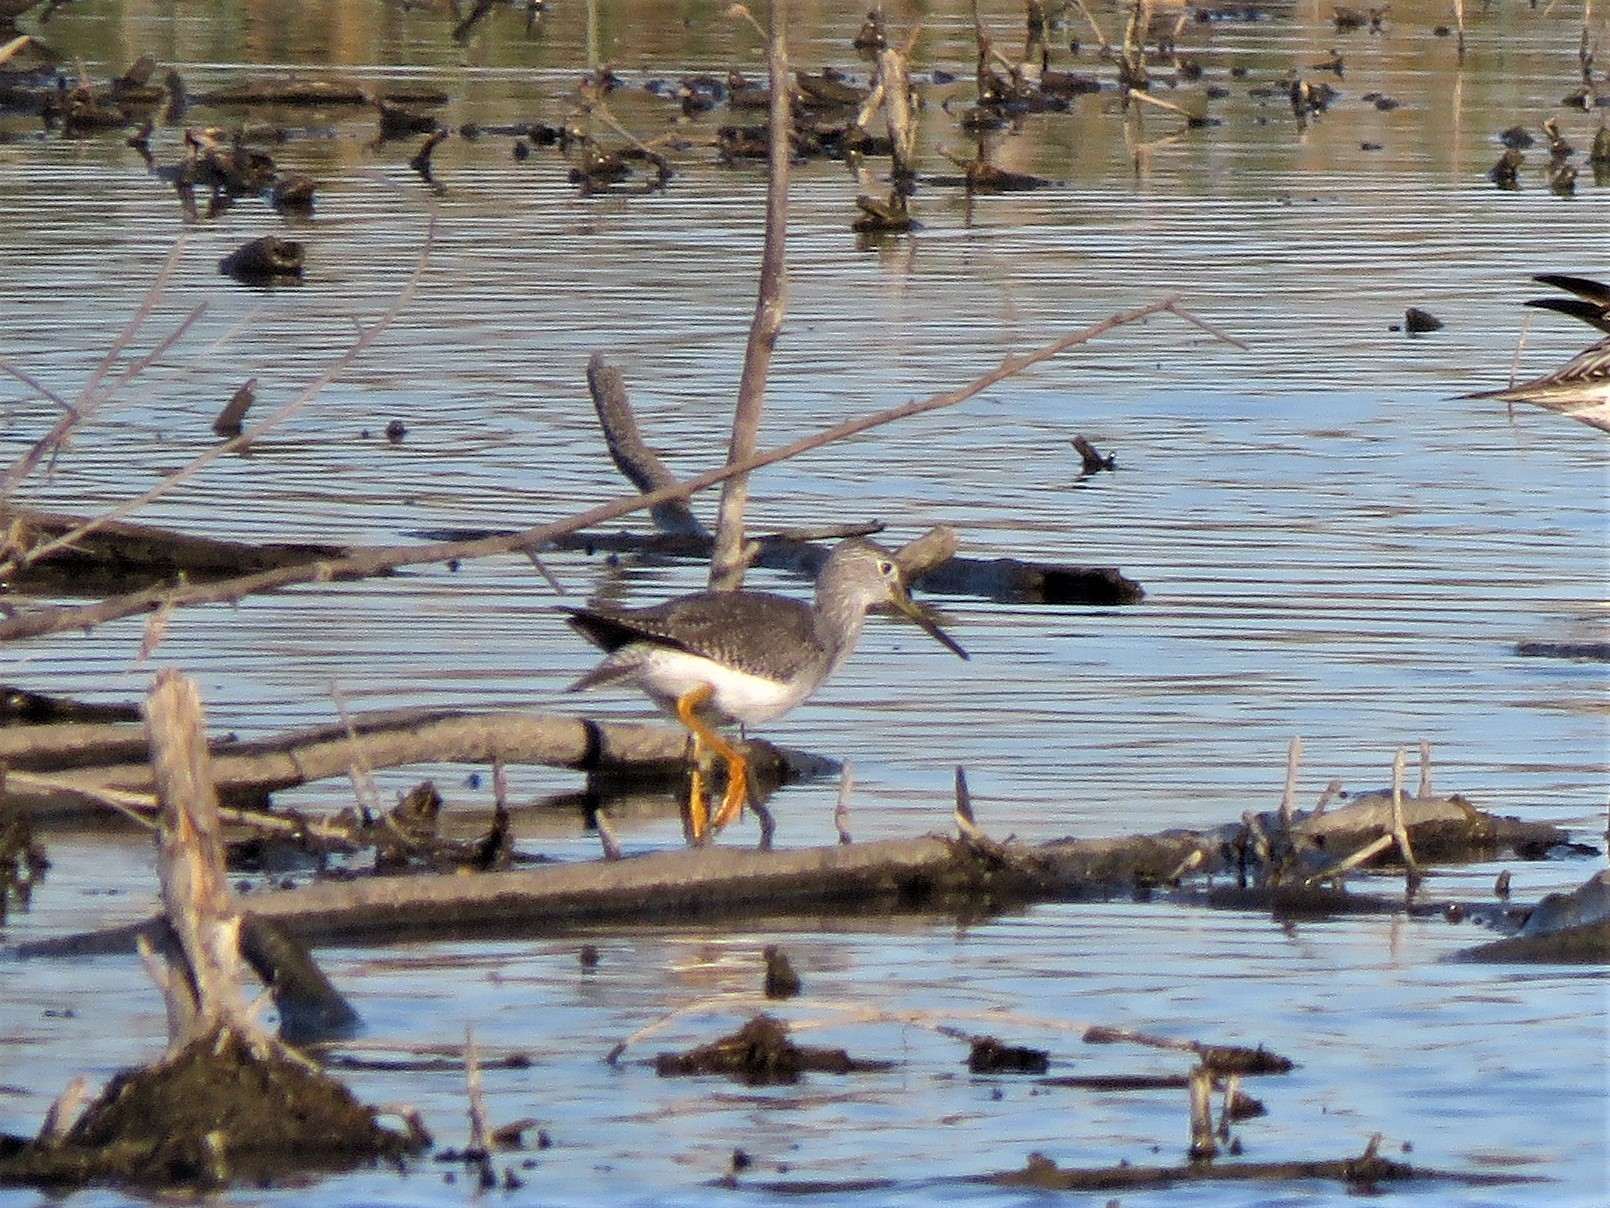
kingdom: Animalia
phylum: Chordata
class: Aves
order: Charadriiformes
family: Scolopacidae
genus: Tringa
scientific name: Tringa melanoleuca
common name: Greater yellowlegs
